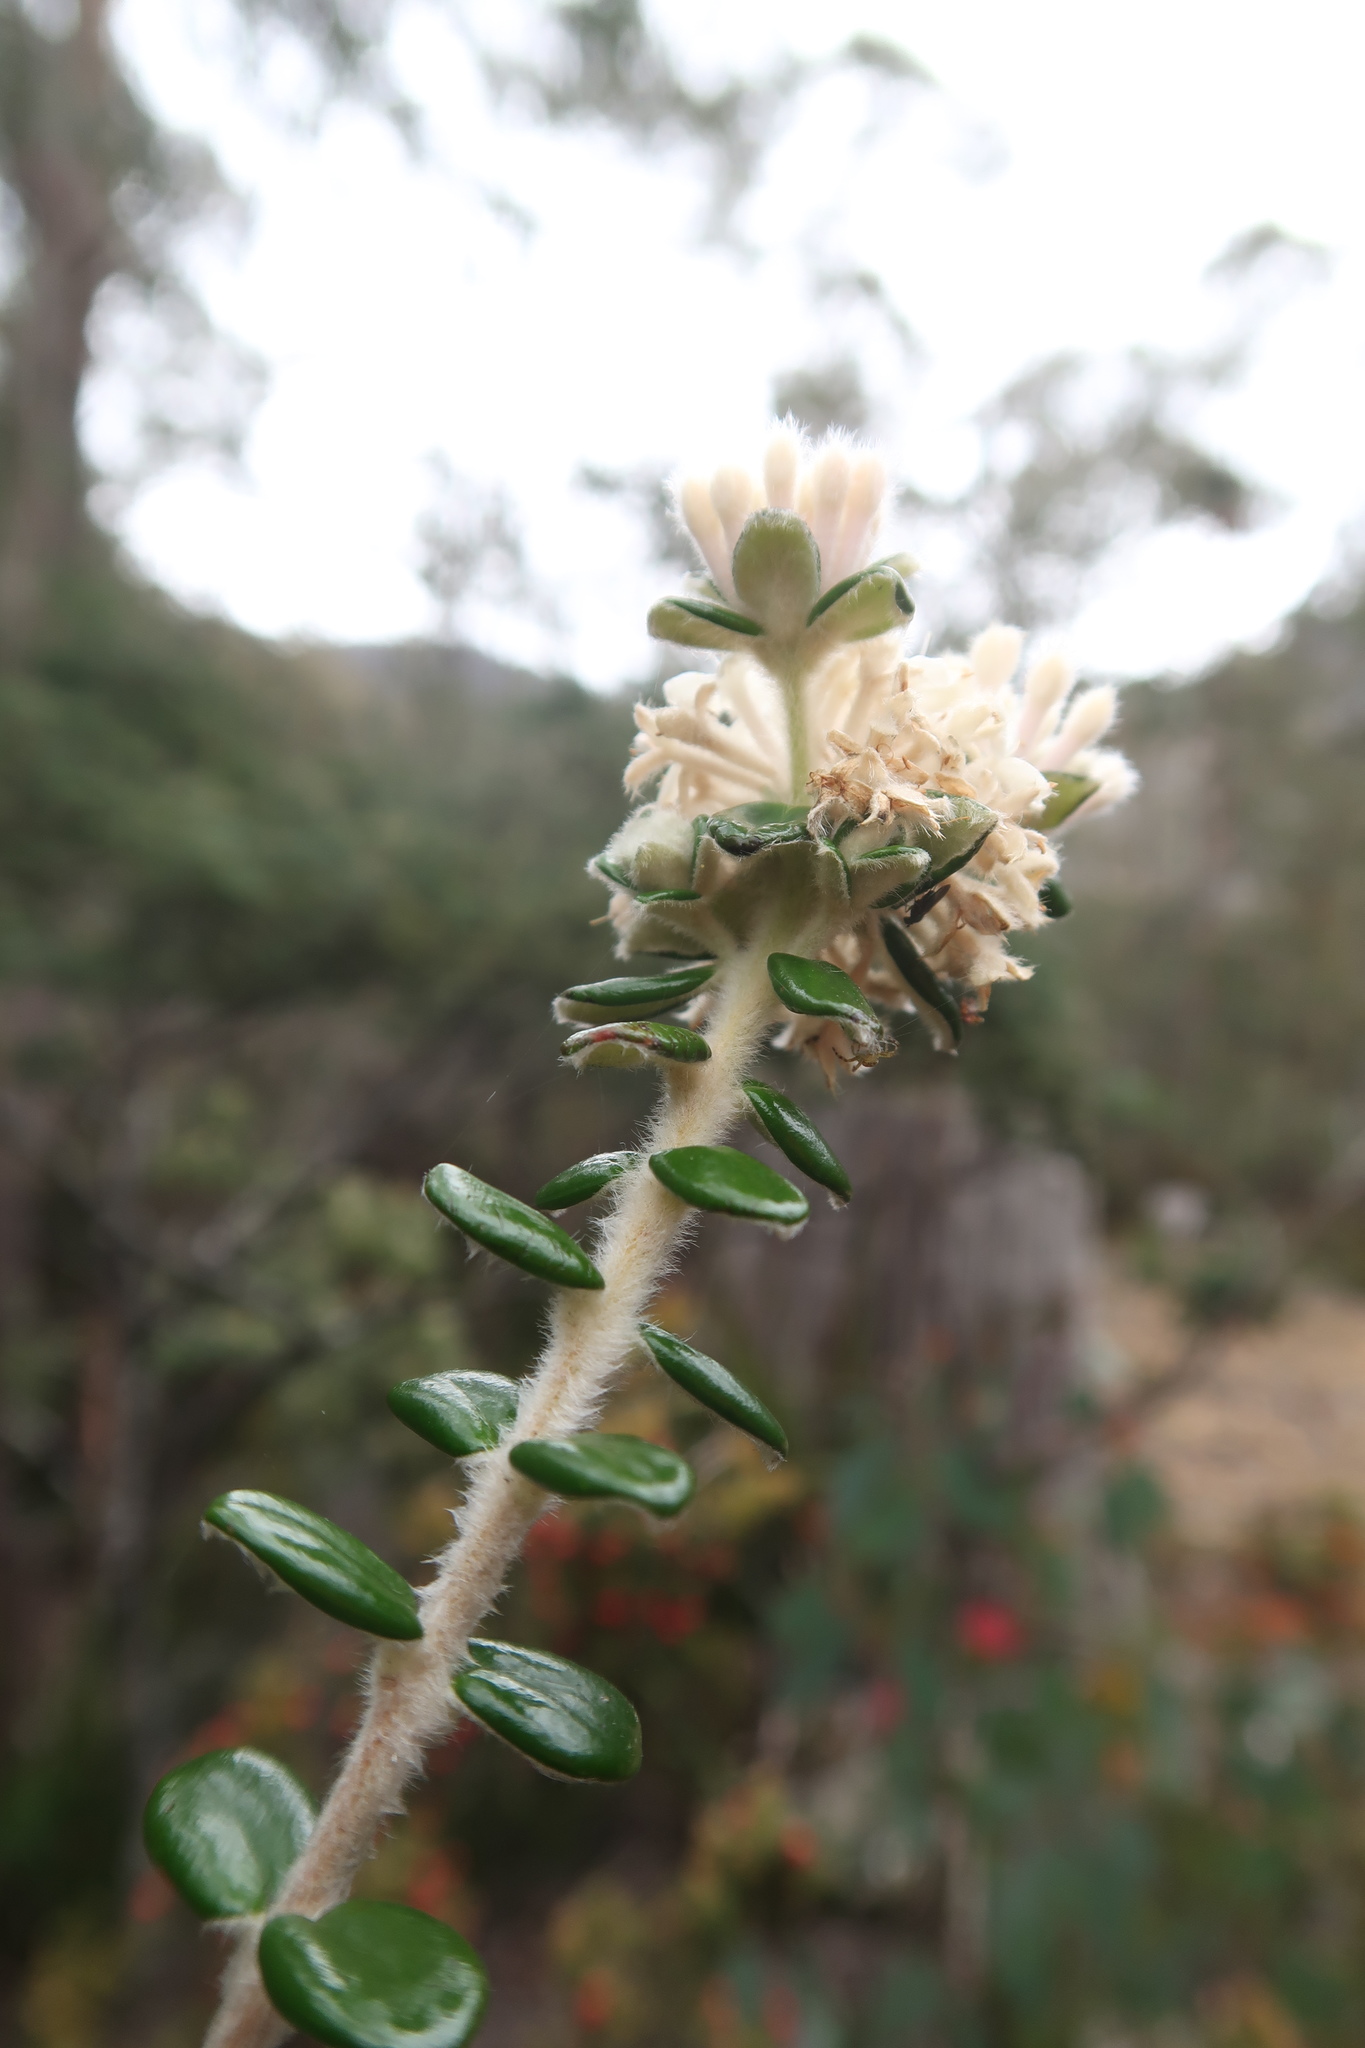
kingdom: Plantae
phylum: Tracheophyta
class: Magnoliopsida
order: Malvales
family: Thymelaeaceae
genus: Pimelea
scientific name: Pimelea nivea
